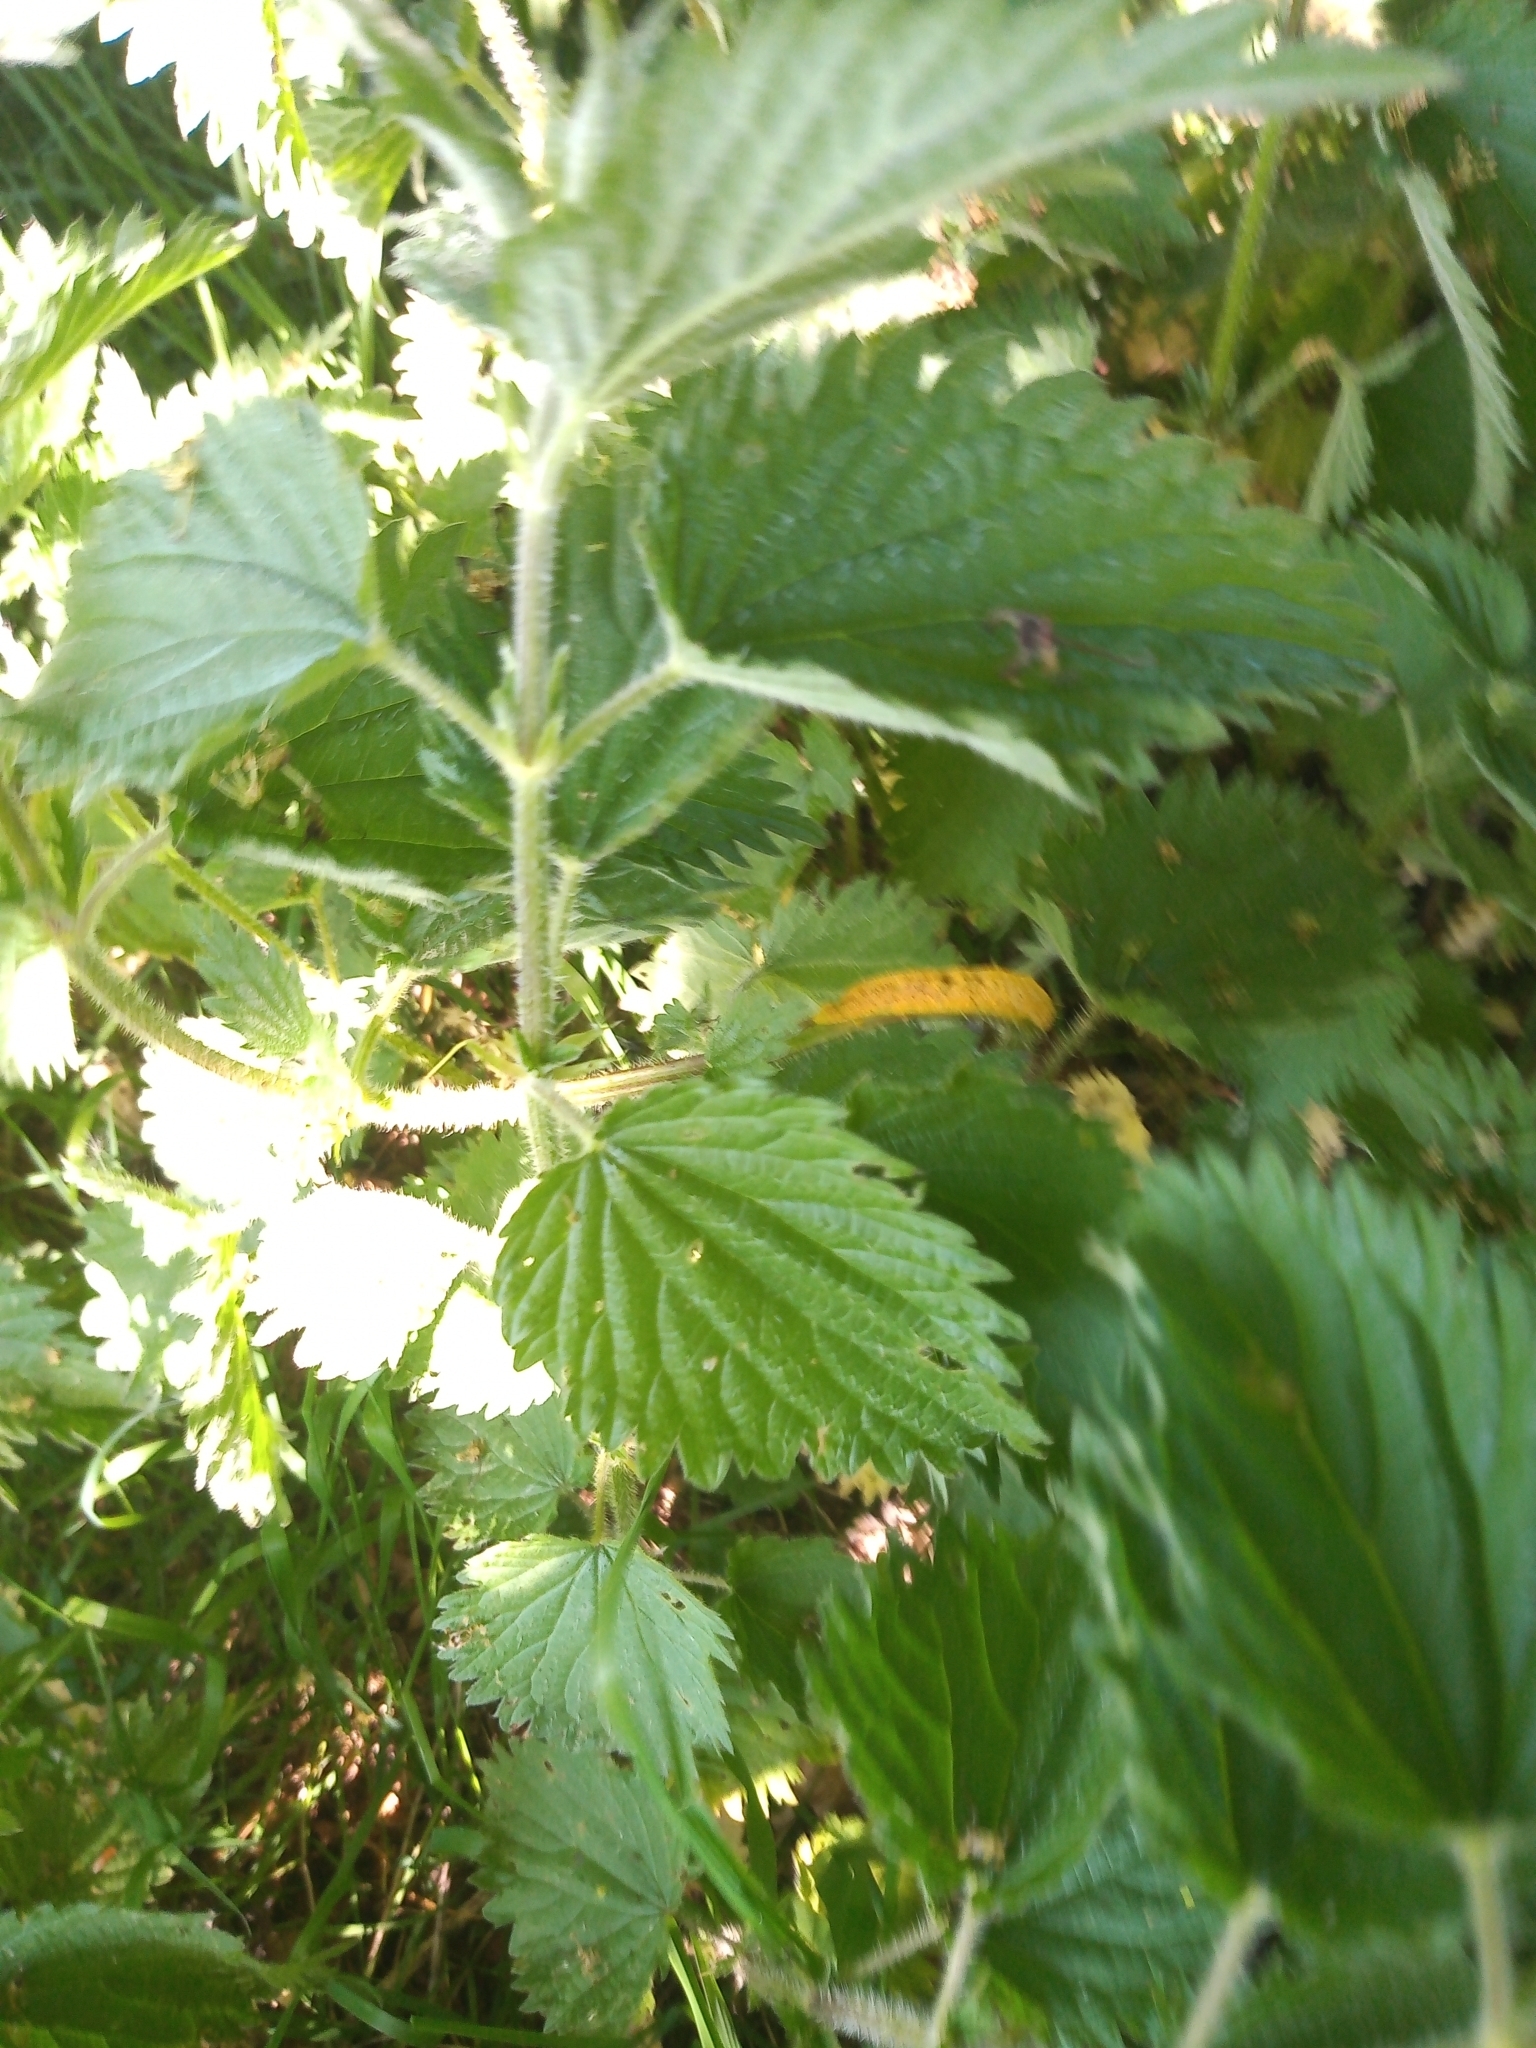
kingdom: Fungi
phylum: Basidiomycota
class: Pucciniomycetes
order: Pucciniales
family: Pucciniaceae
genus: Puccinia
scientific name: Puccinia urticata
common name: Nettle clustercup rust fungus
